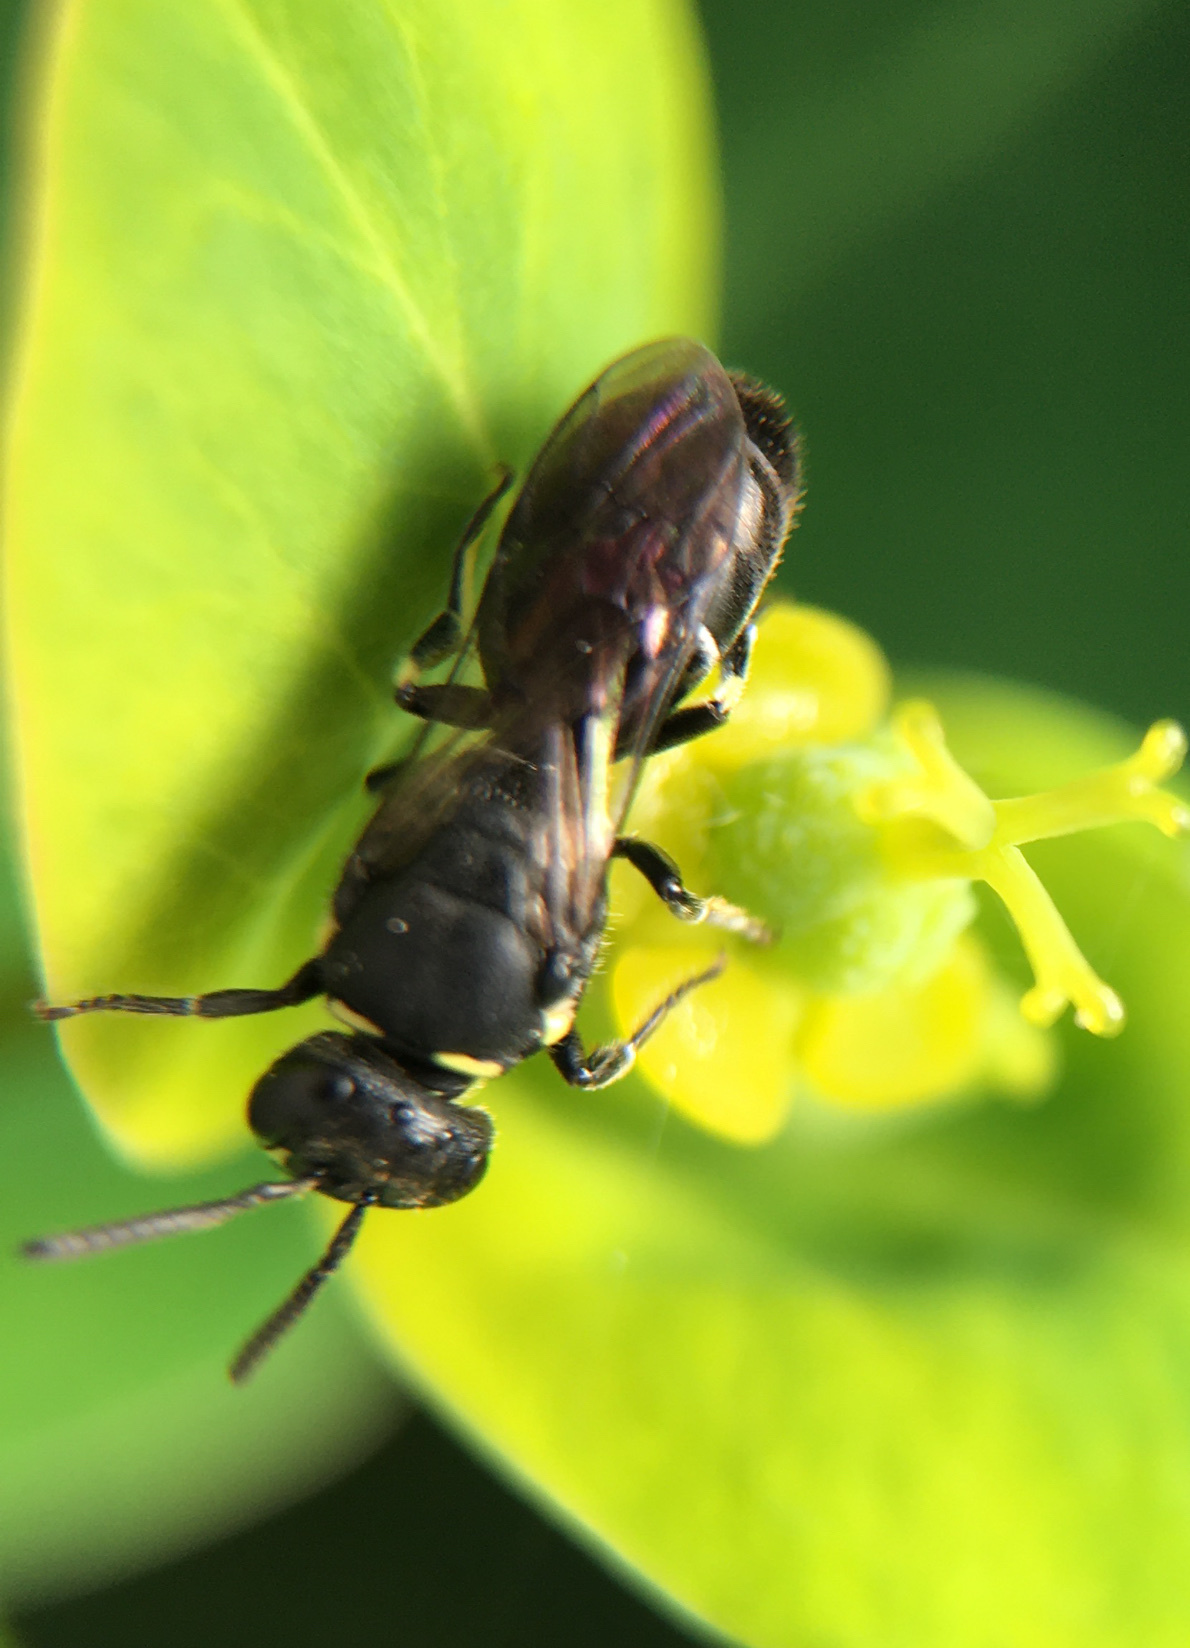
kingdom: Animalia
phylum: Arthropoda
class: Insecta
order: Hymenoptera
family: Colletidae
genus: Hylaeus
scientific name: Hylaeus
